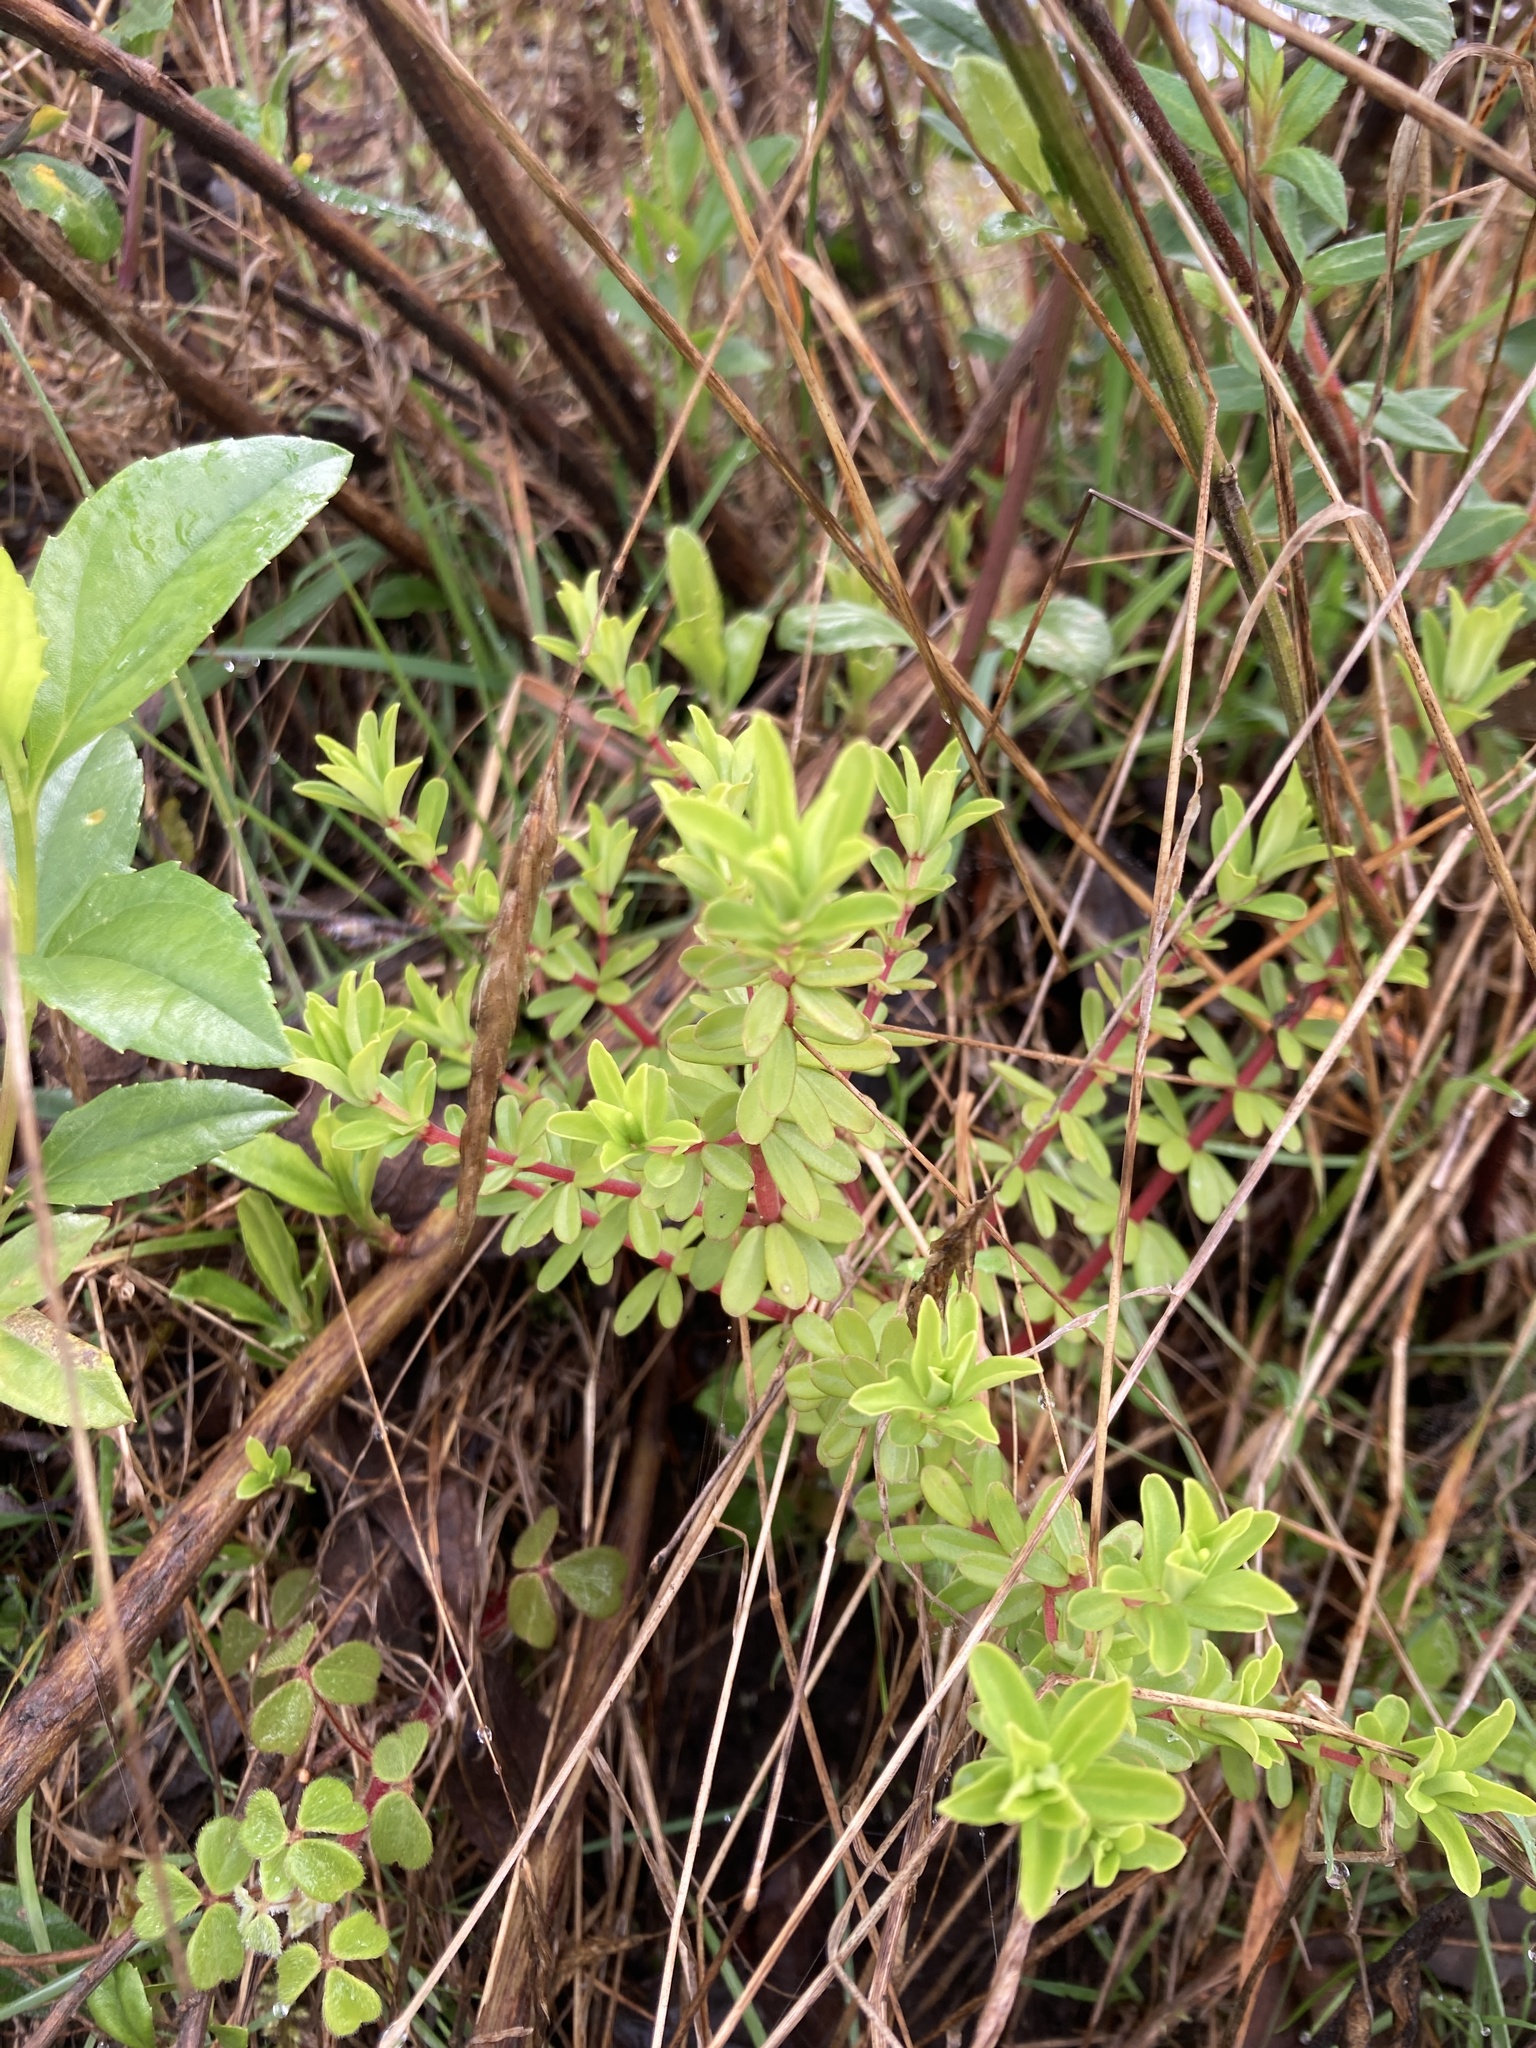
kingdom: Plantae
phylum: Tracheophyta
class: Magnoliopsida
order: Piperales
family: Piperaceae
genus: Peperomia
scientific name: Peperomia galioides
